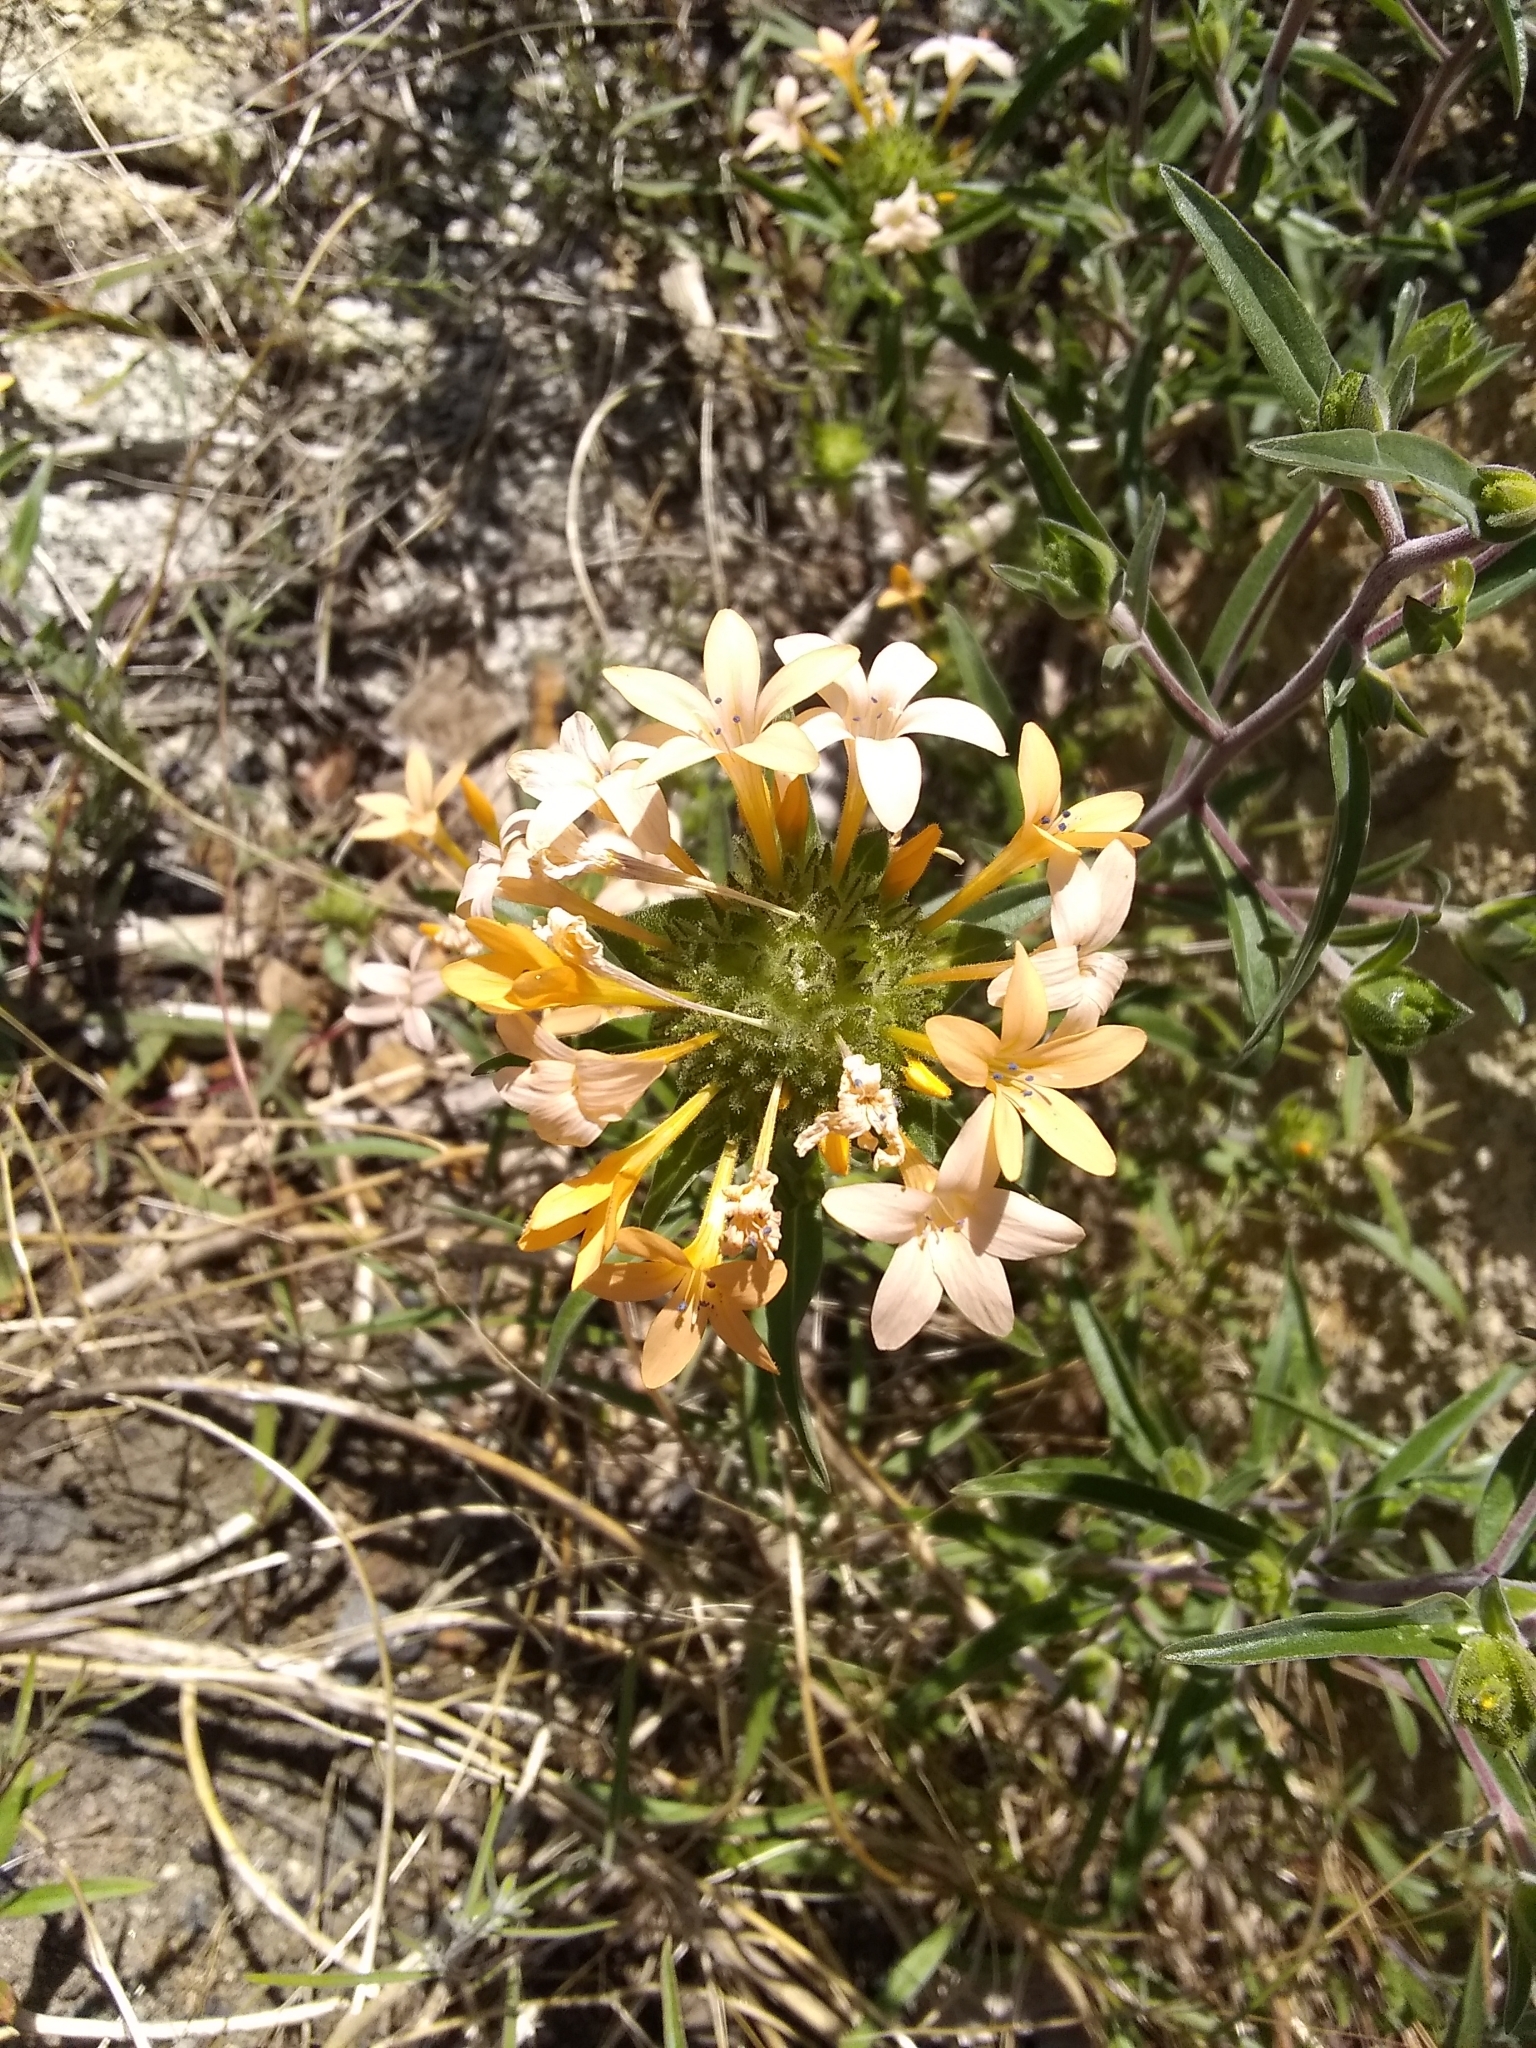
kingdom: Plantae
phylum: Tracheophyta
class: Magnoliopsida
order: Ericales
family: Polemoniaceae
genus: Collomia
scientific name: Collomia grandiflora
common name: California strawflower
